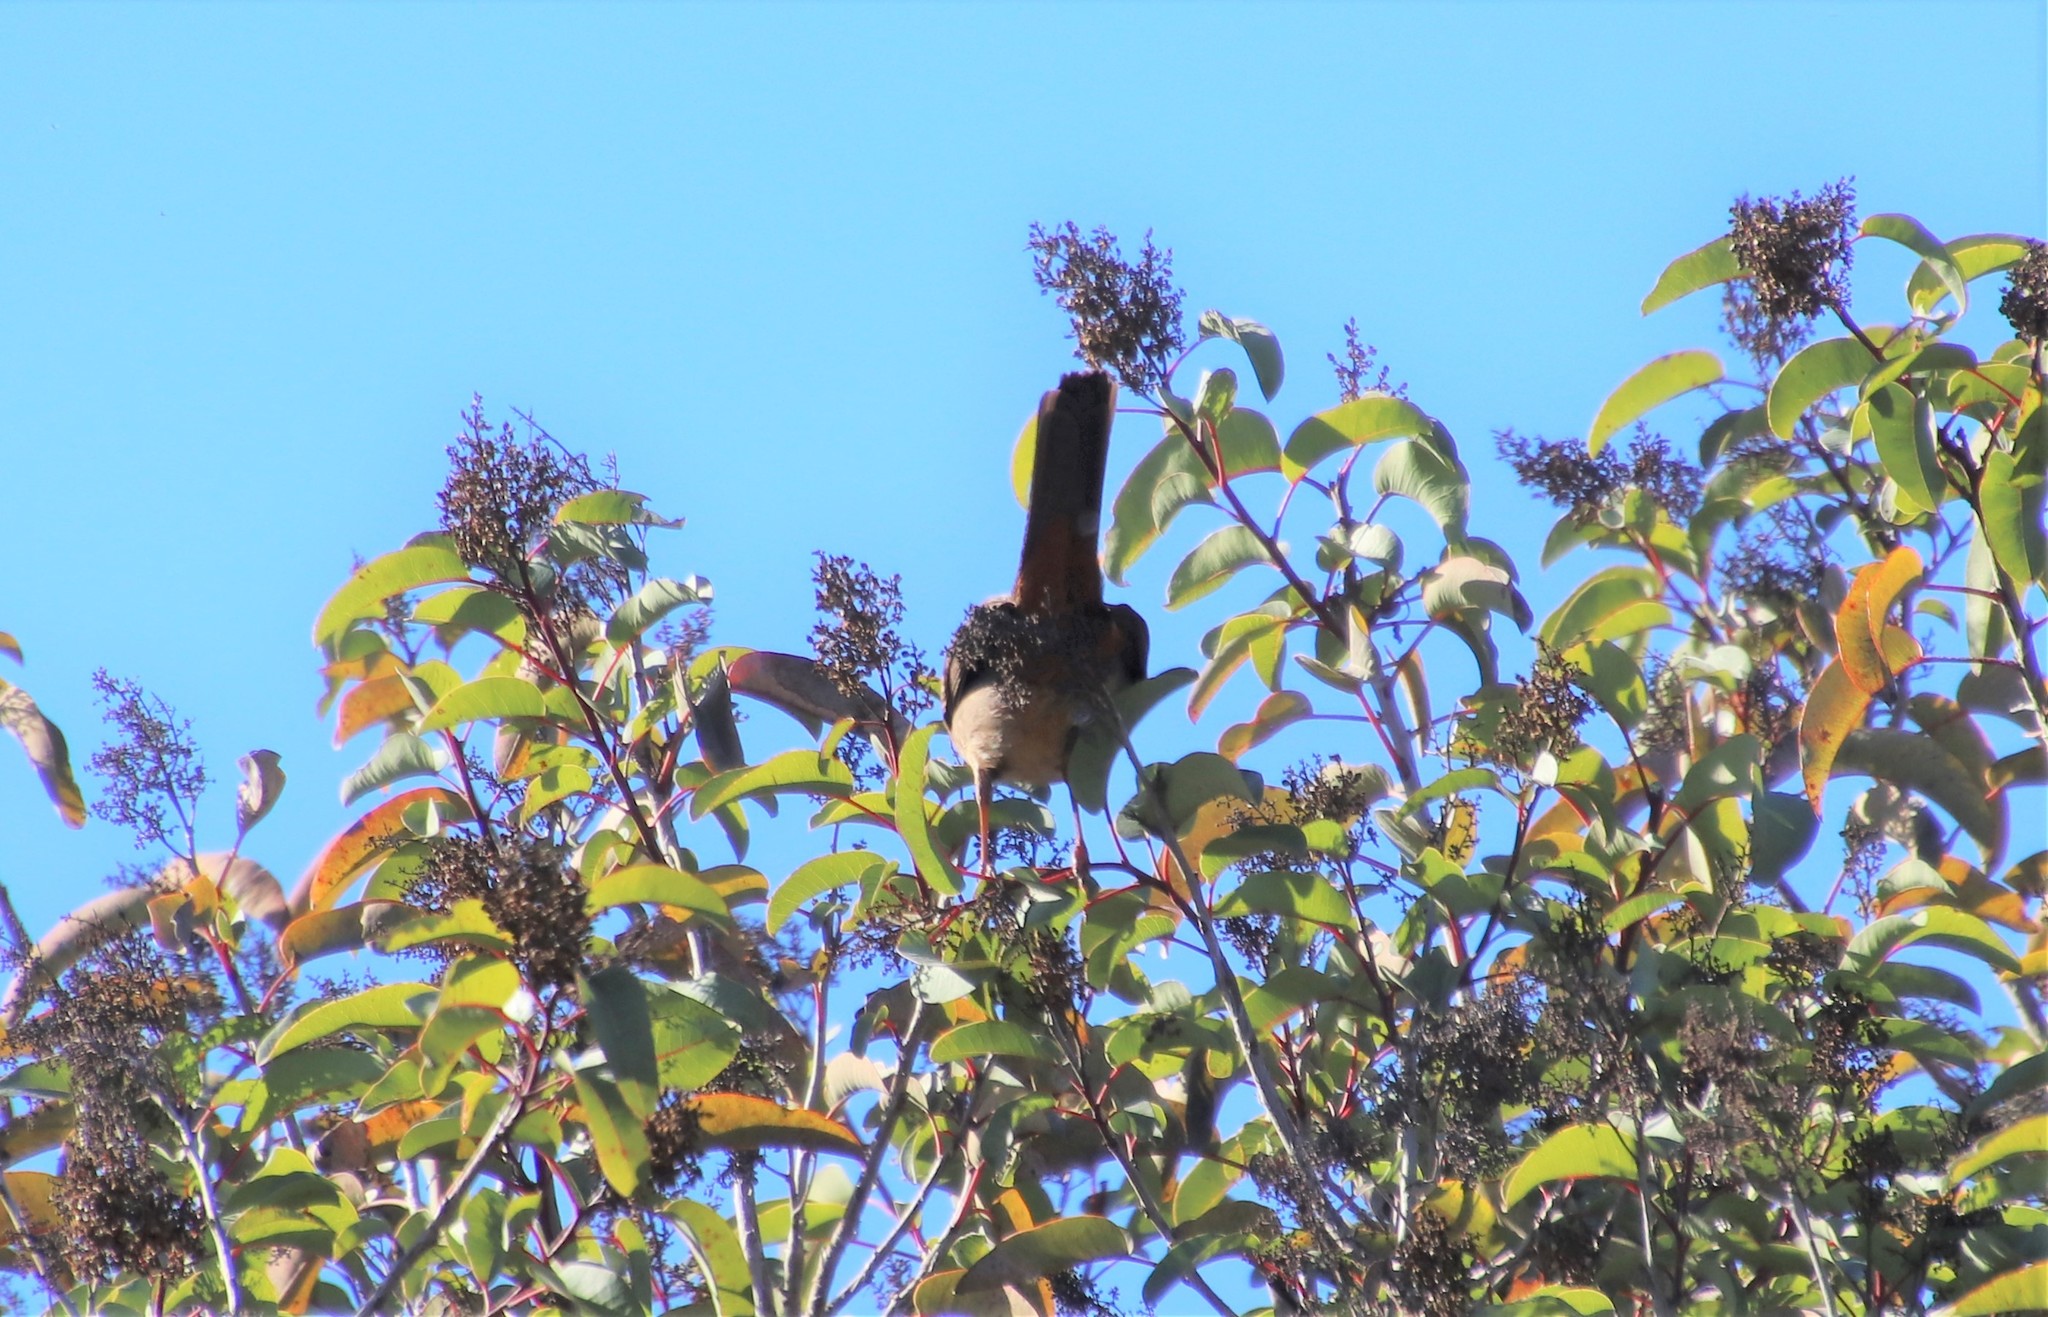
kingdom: Animalia
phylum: Chordata
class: Aves
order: Passeriformes
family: Passerellidae
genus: Melozone
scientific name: Melozone crissalis
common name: California towhee
